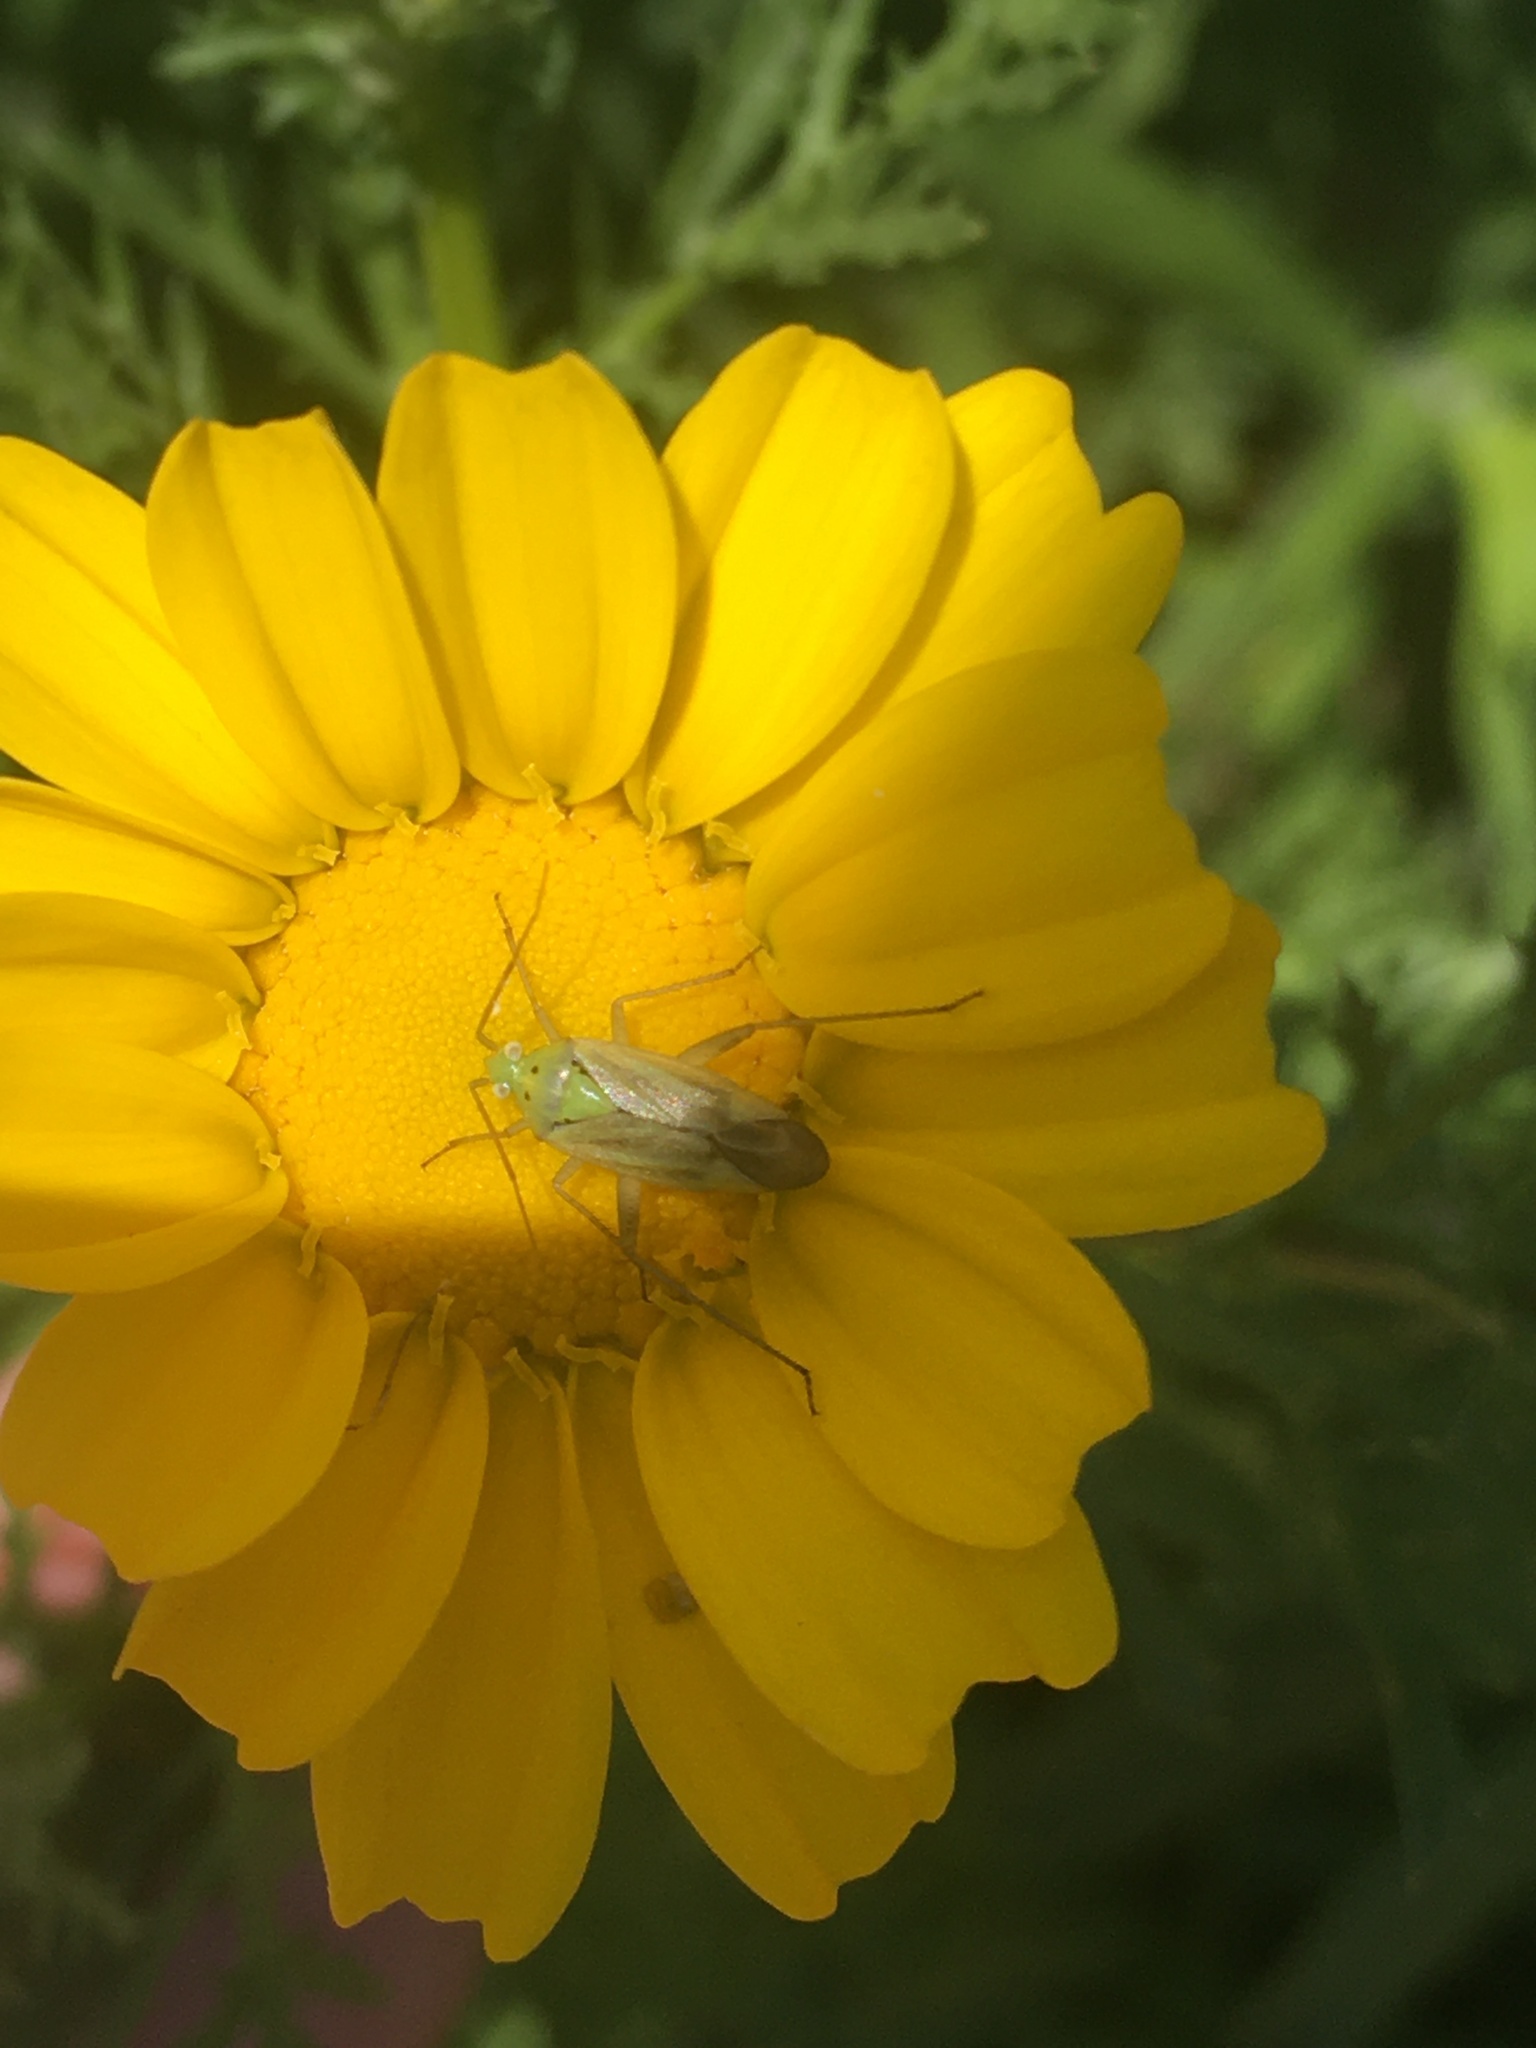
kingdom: Animalia
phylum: Arthropoda
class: Insecta
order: Hemiptera
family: Miridae
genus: Closterotomus
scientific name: Closterotomus norvegicus
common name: Plant bug
